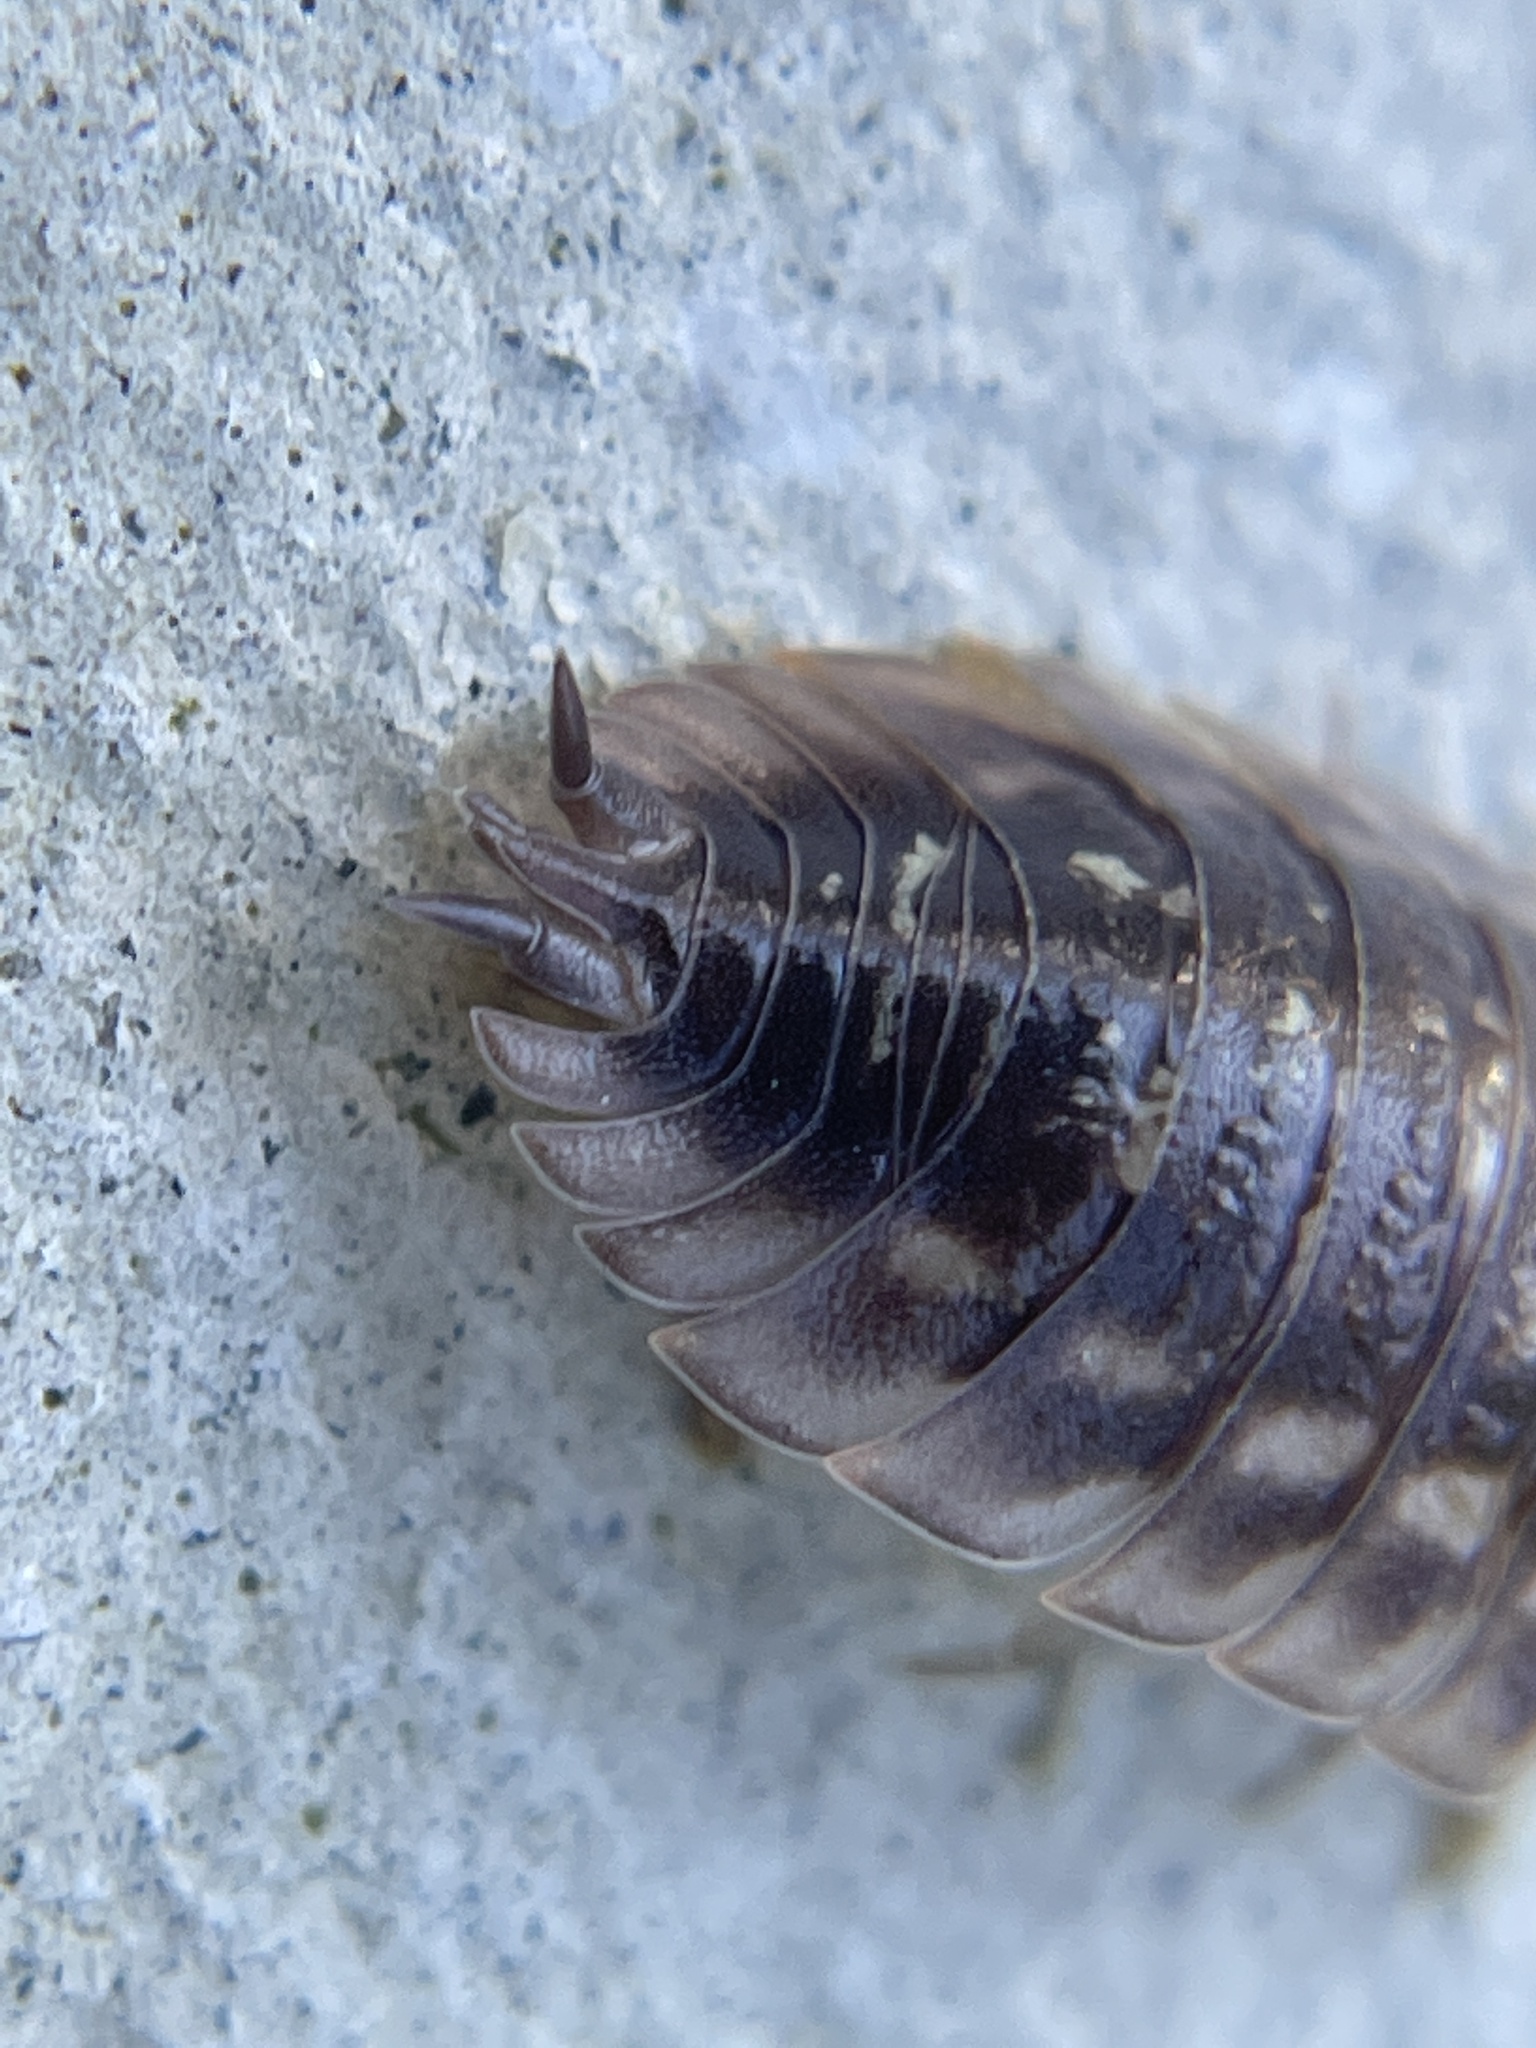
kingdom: Animalia
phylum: Arthropoda
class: Malacostraca
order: Isopoda
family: Oniscidae
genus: Oniscus
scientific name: Oniscus asellus
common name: Common shiny woodlouse
